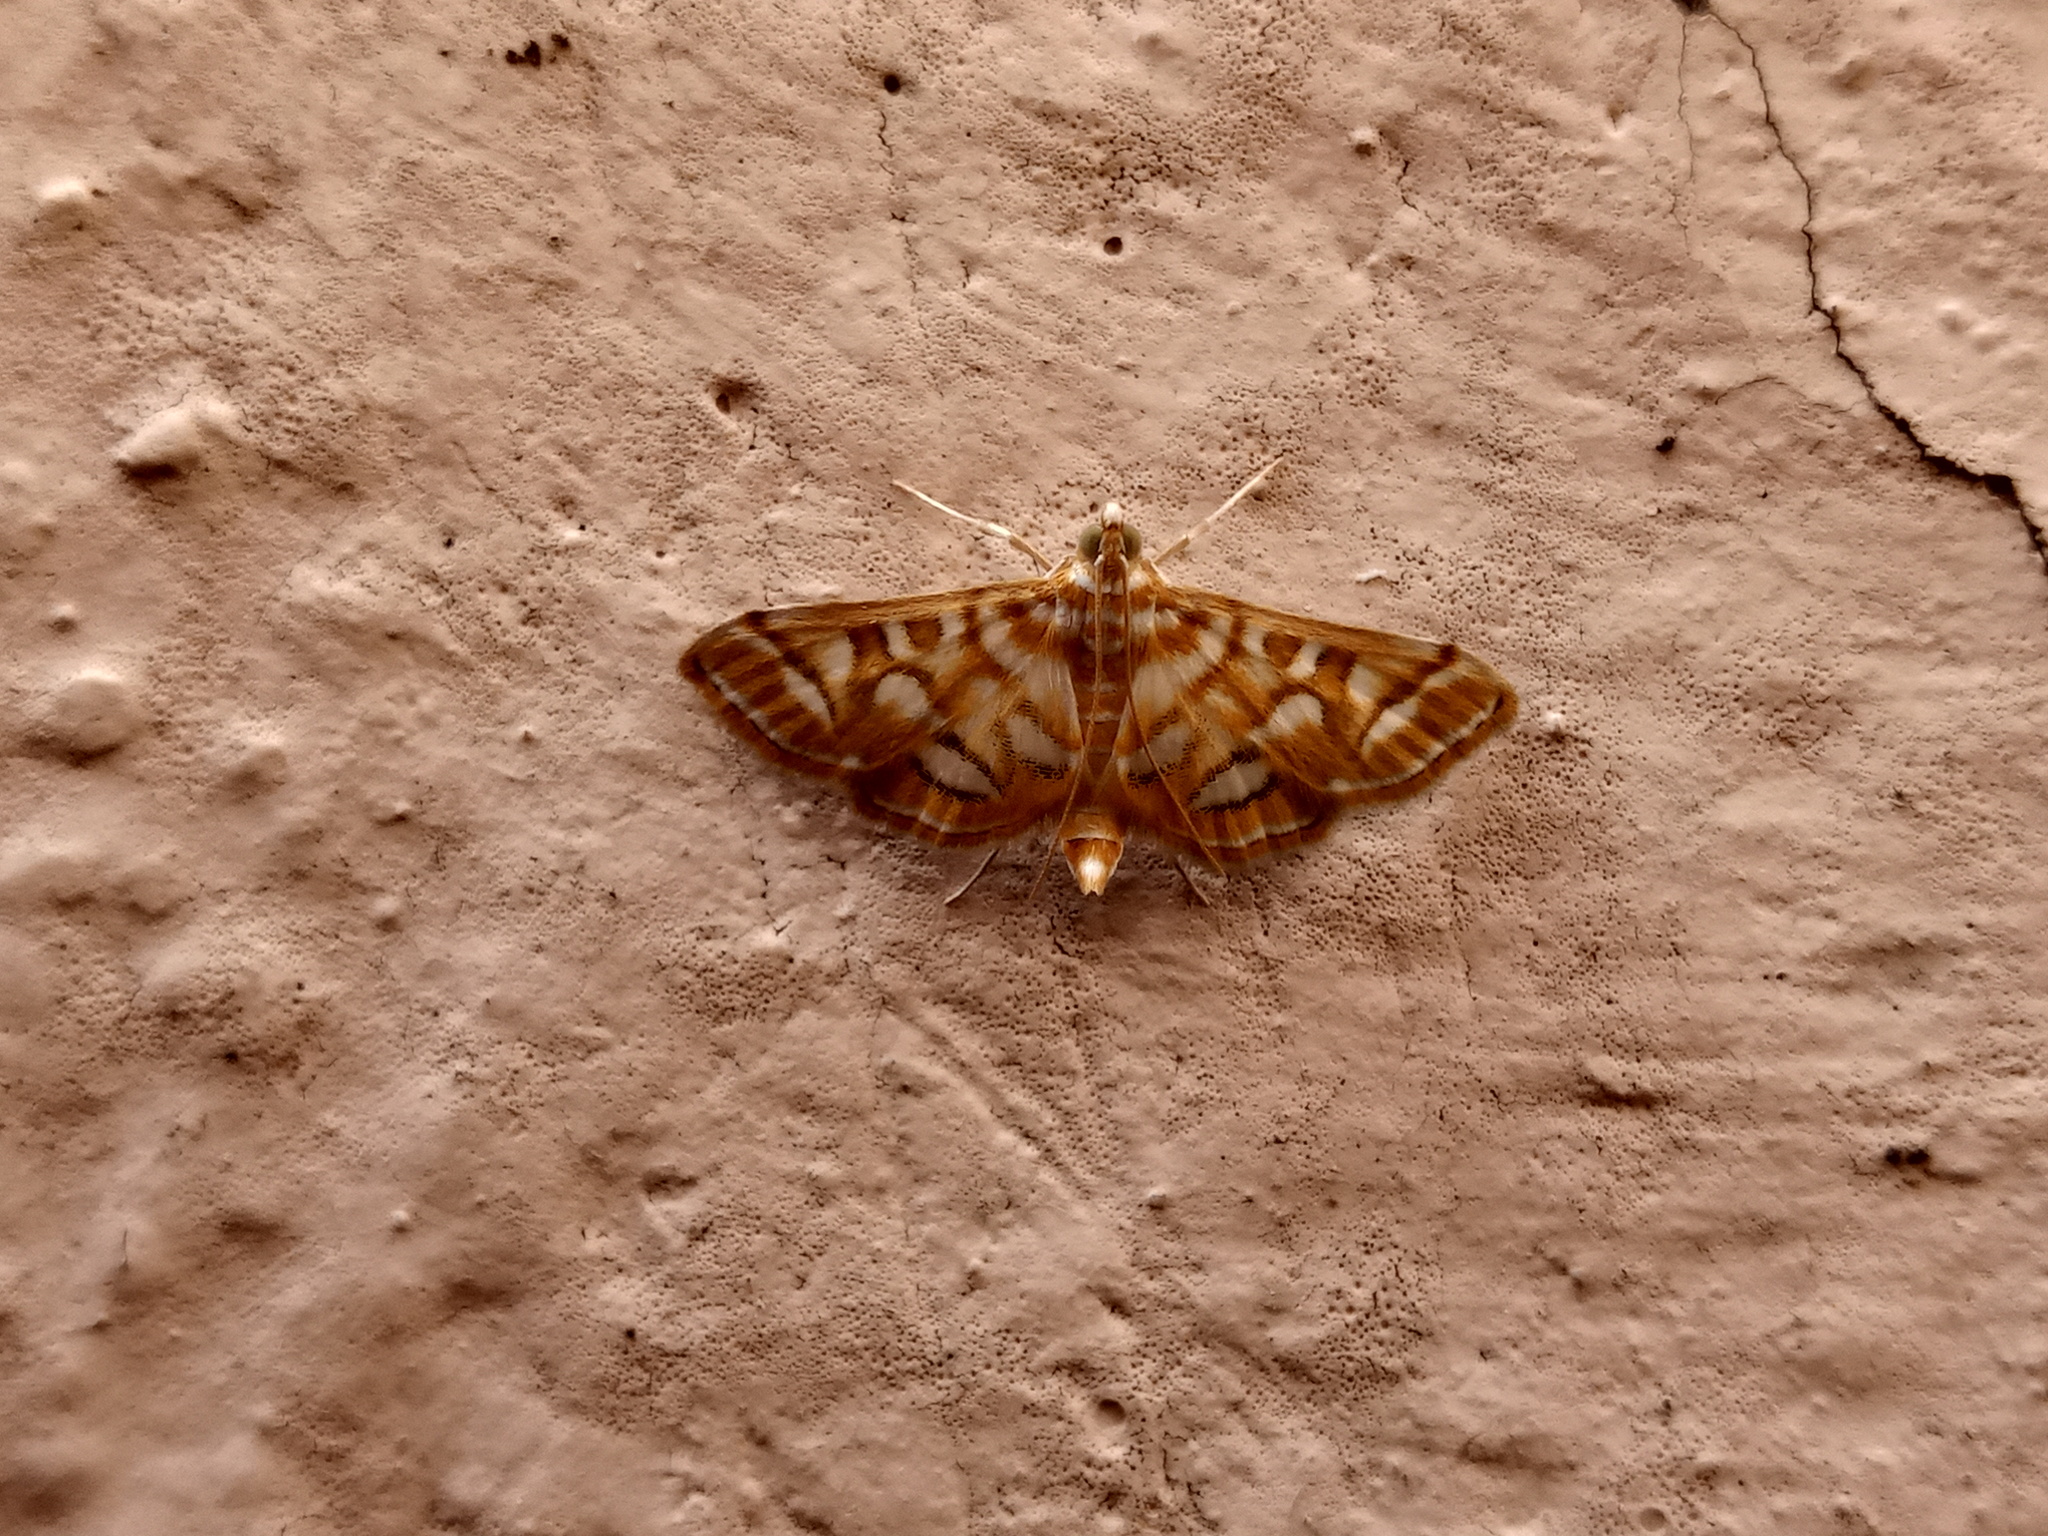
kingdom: Animalia
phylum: Arthropoda
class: Insecta
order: Lepidoptera
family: Crambidae
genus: Pseudopyrausta
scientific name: Pseudopyrausta marginalis
